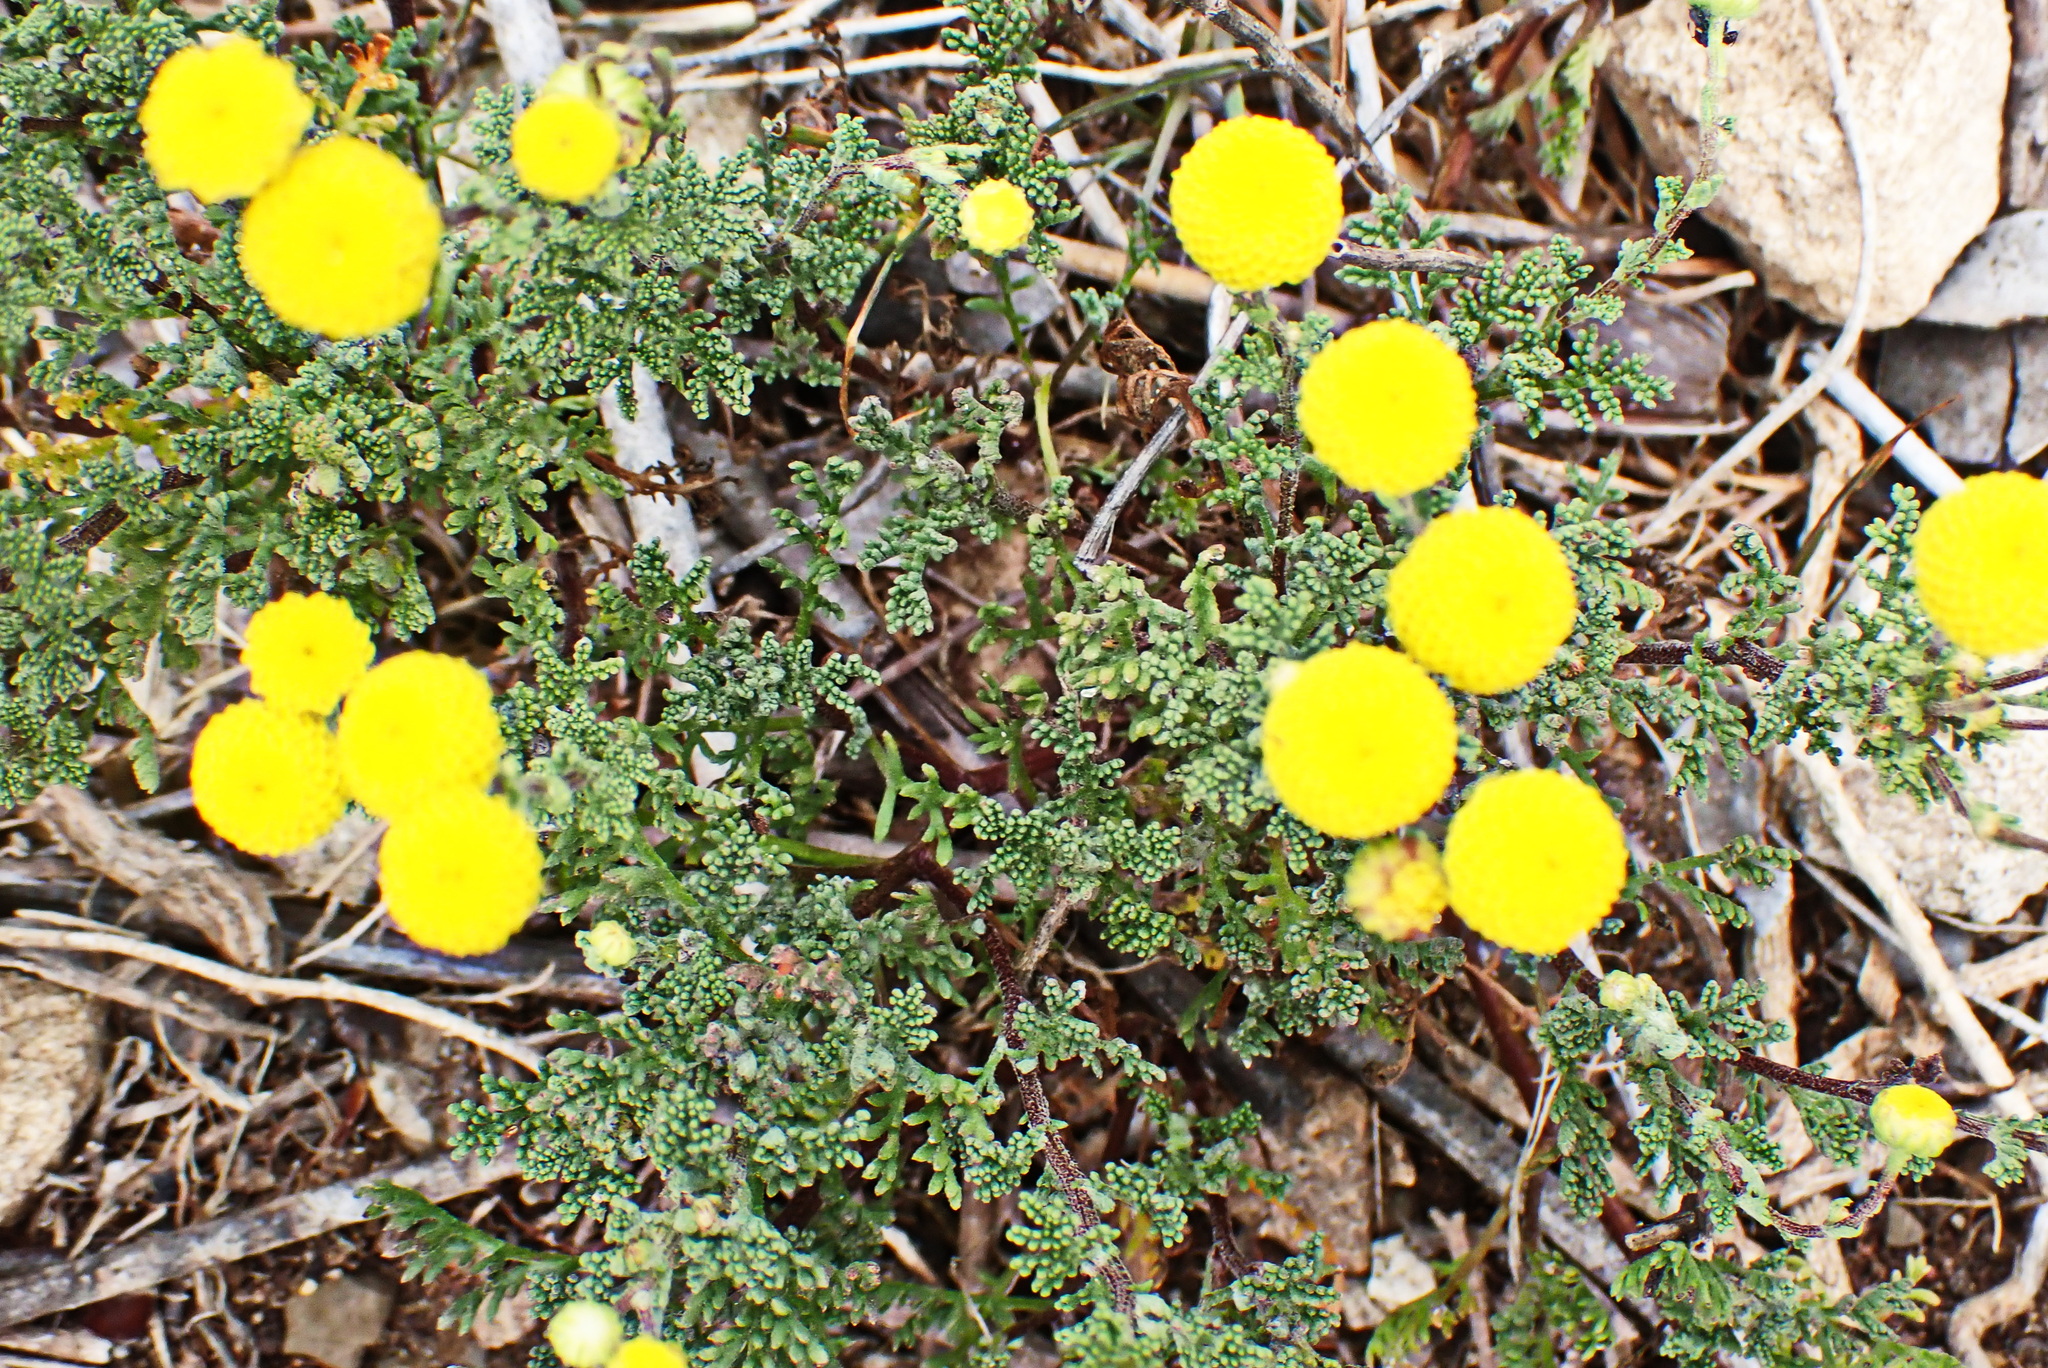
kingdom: Plantae
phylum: Tracheophyta
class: Magnoliopsida
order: Asterales
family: Asteraceae
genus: Oncosiphon
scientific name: Oncosiphon suffruticosus
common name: Shrubby mayweed
